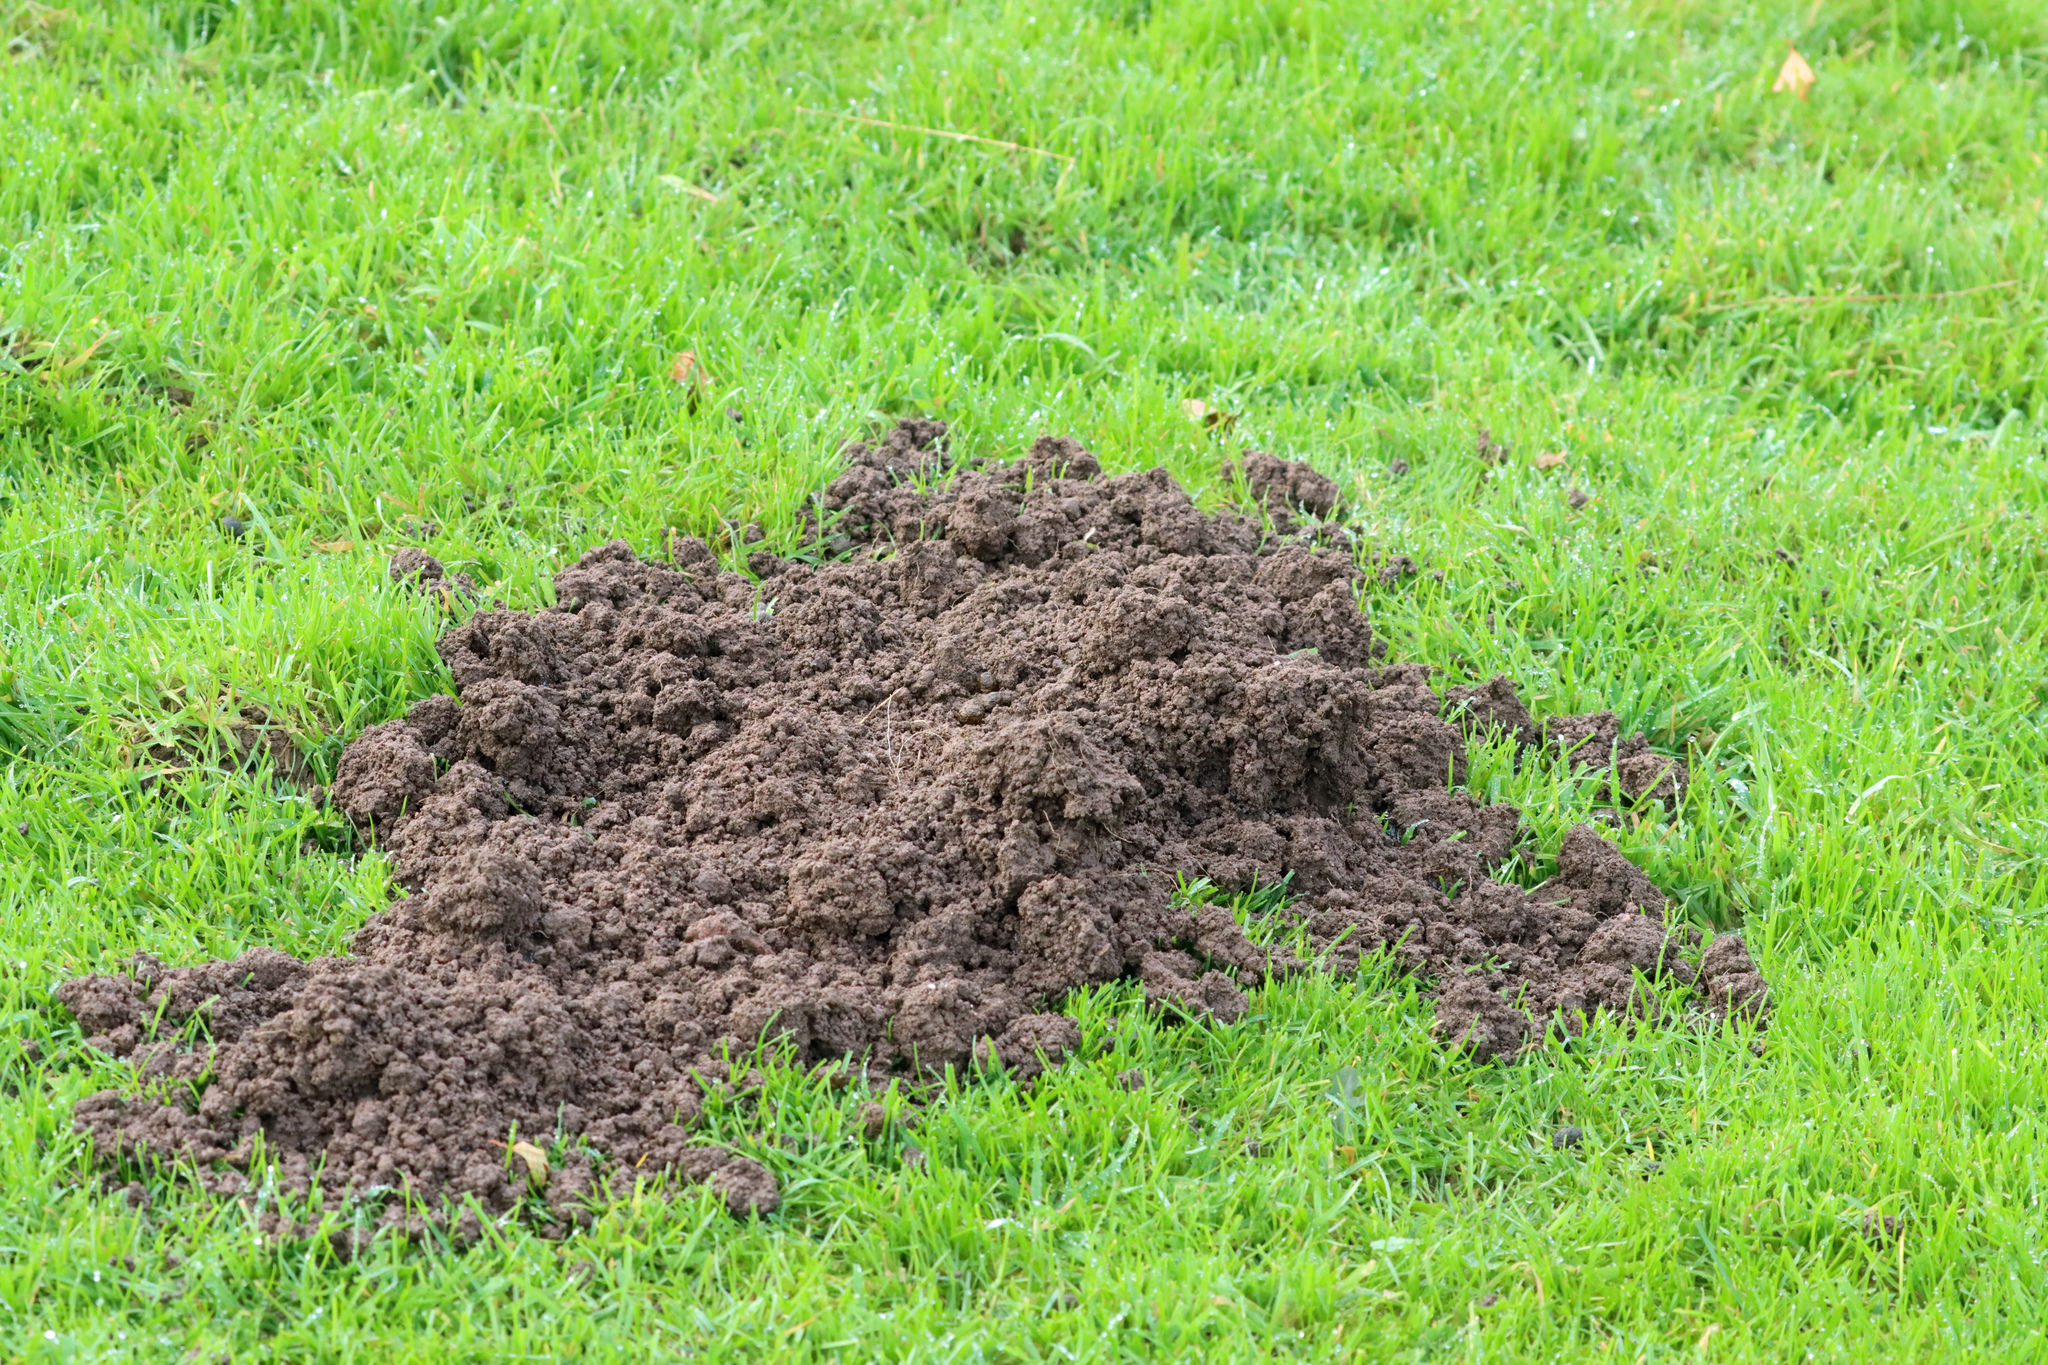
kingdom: Animalia
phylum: Chordata
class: Mammalia
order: Soricomorpha
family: Talpidae
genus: Talpa
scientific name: Talpa europaea
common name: European mole
